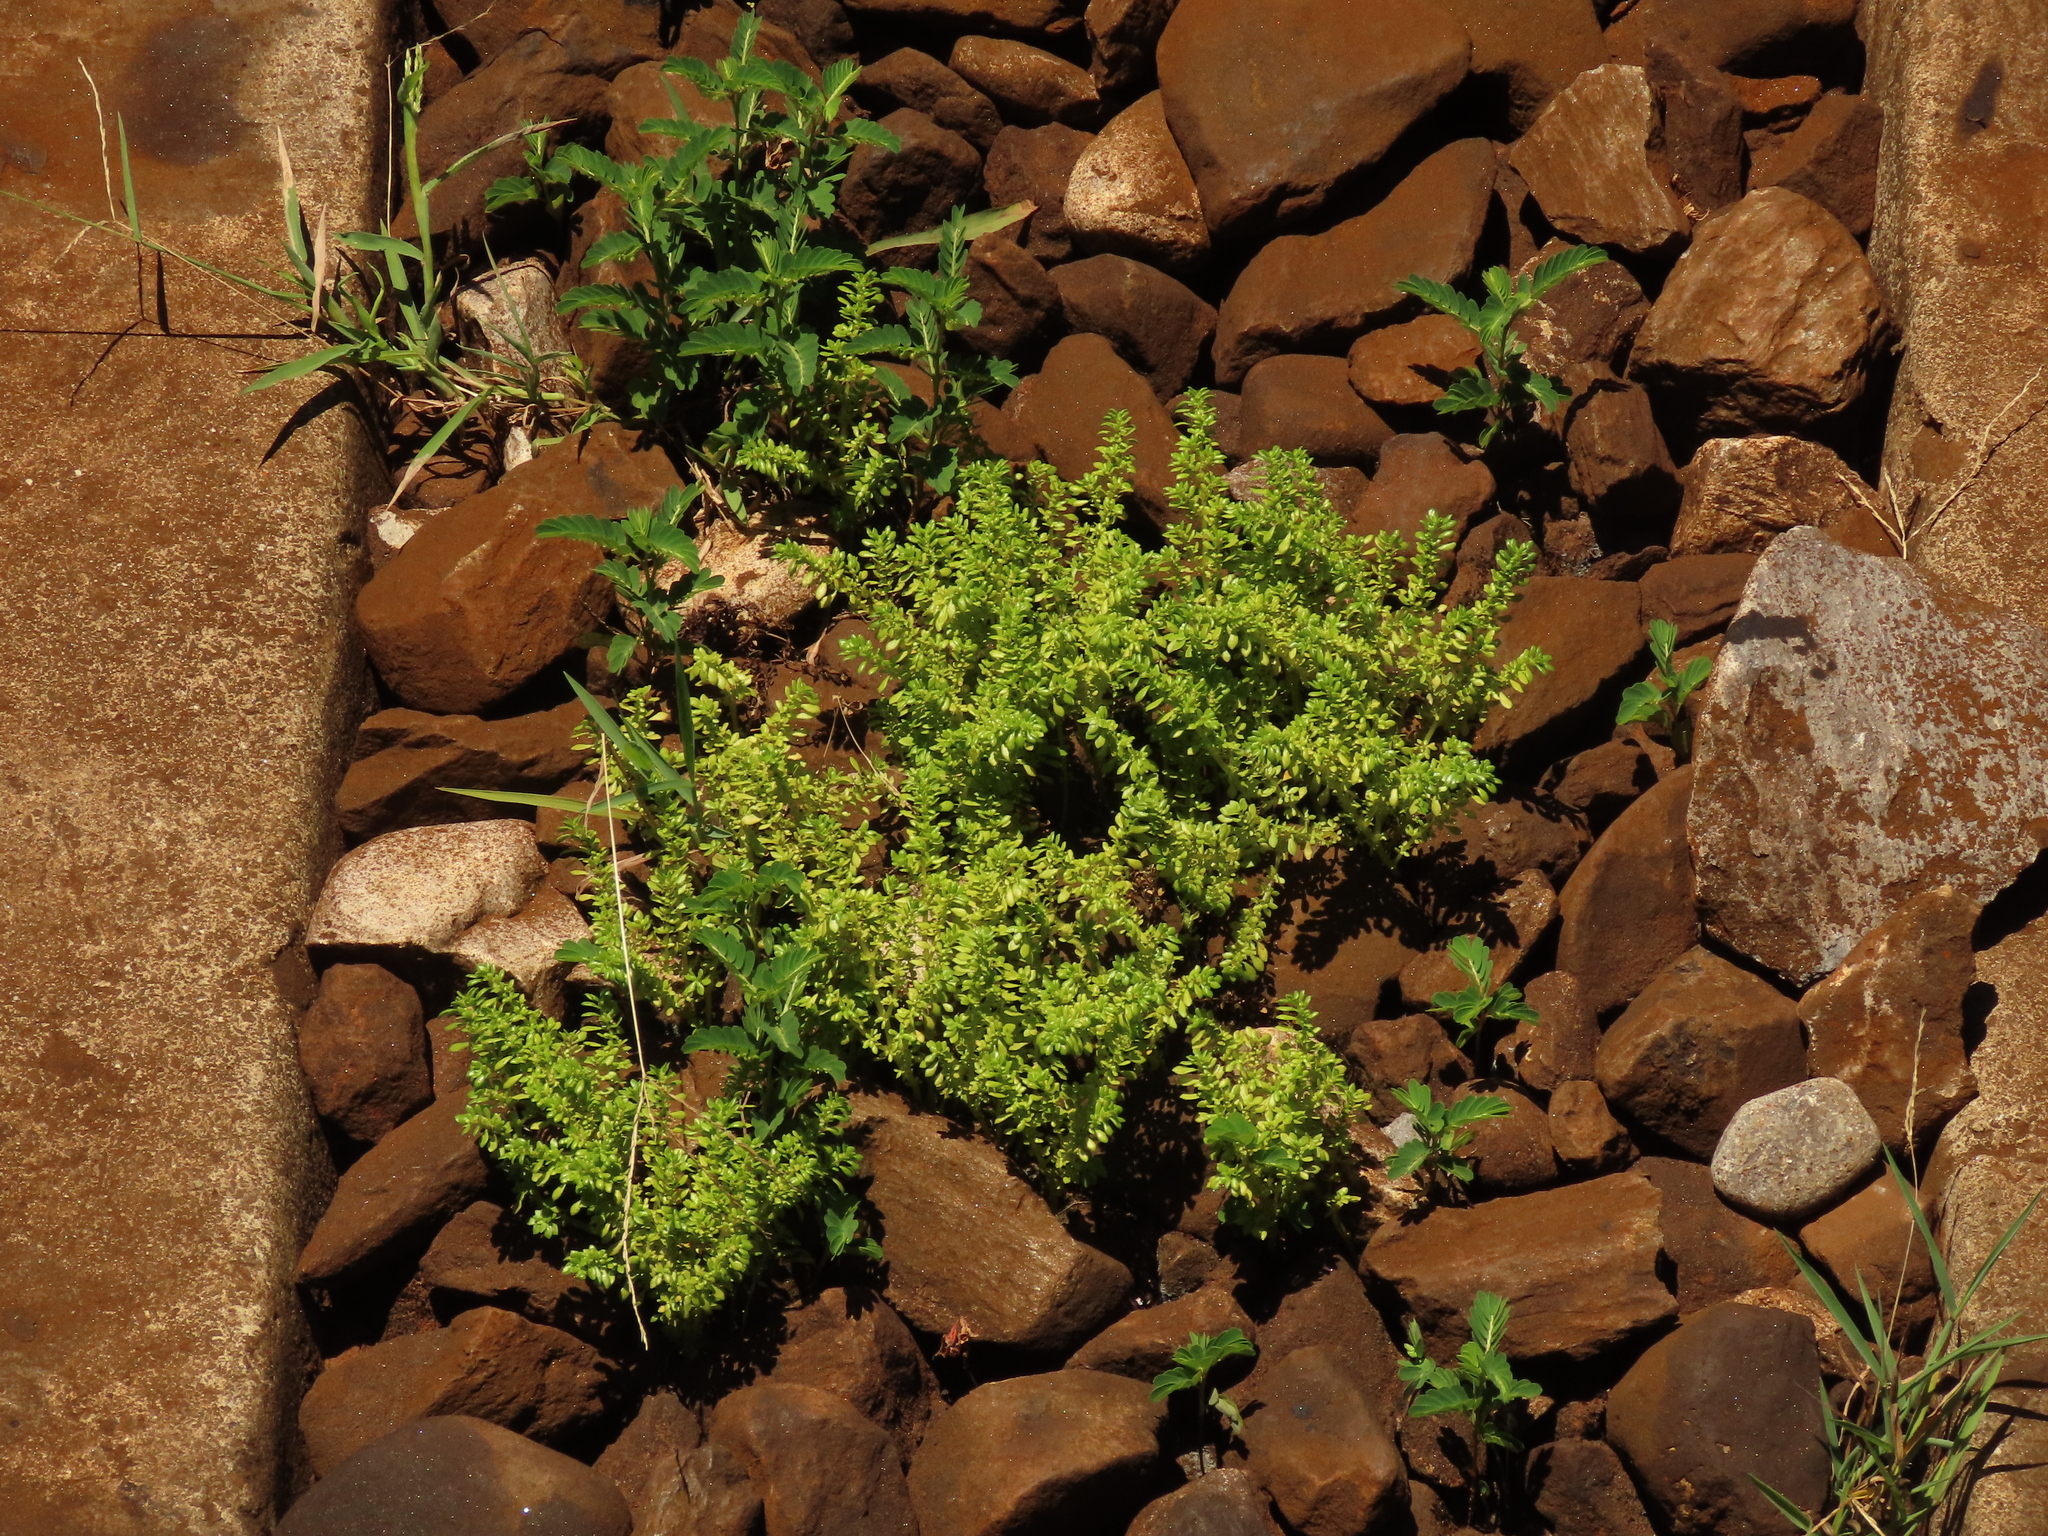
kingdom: Plantae
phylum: Tracheophyta
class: Magnoliopsida
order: Rosales
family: Urticaceae
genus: Pilea
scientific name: Pilea microphylla
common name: Artillery-plant
